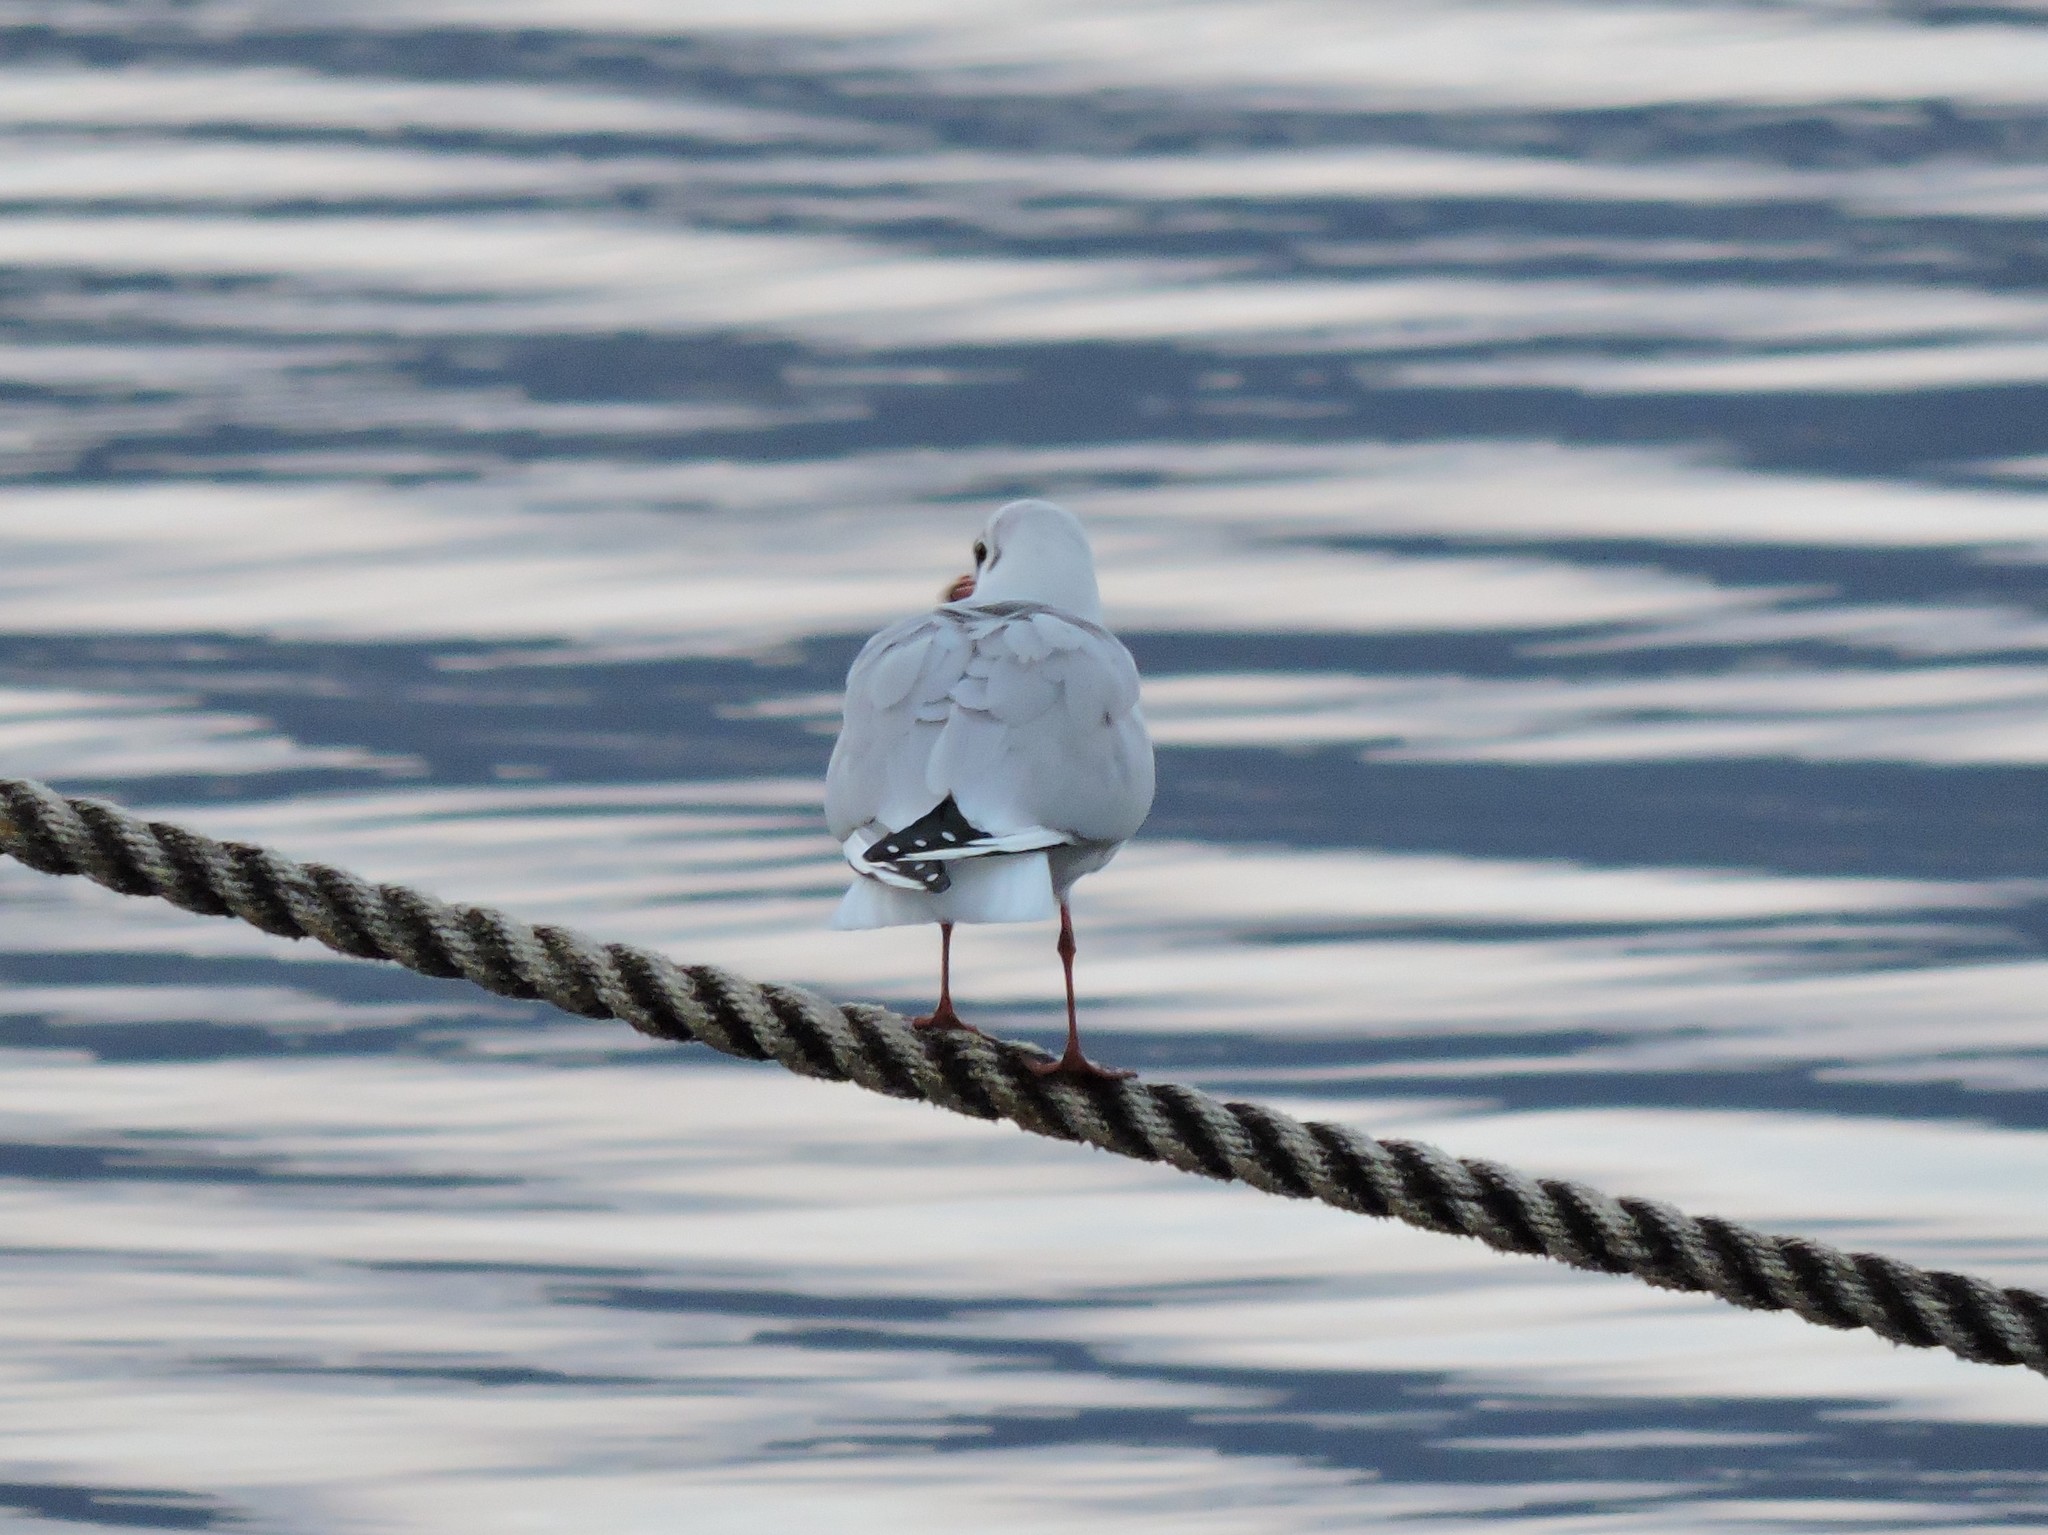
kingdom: Animalia
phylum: Chordata
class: Aves
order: Charadriiformes
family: Laridae
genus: Chroicocephalus
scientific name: Chroicocephalus ridibundus
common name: Black-headed gull
